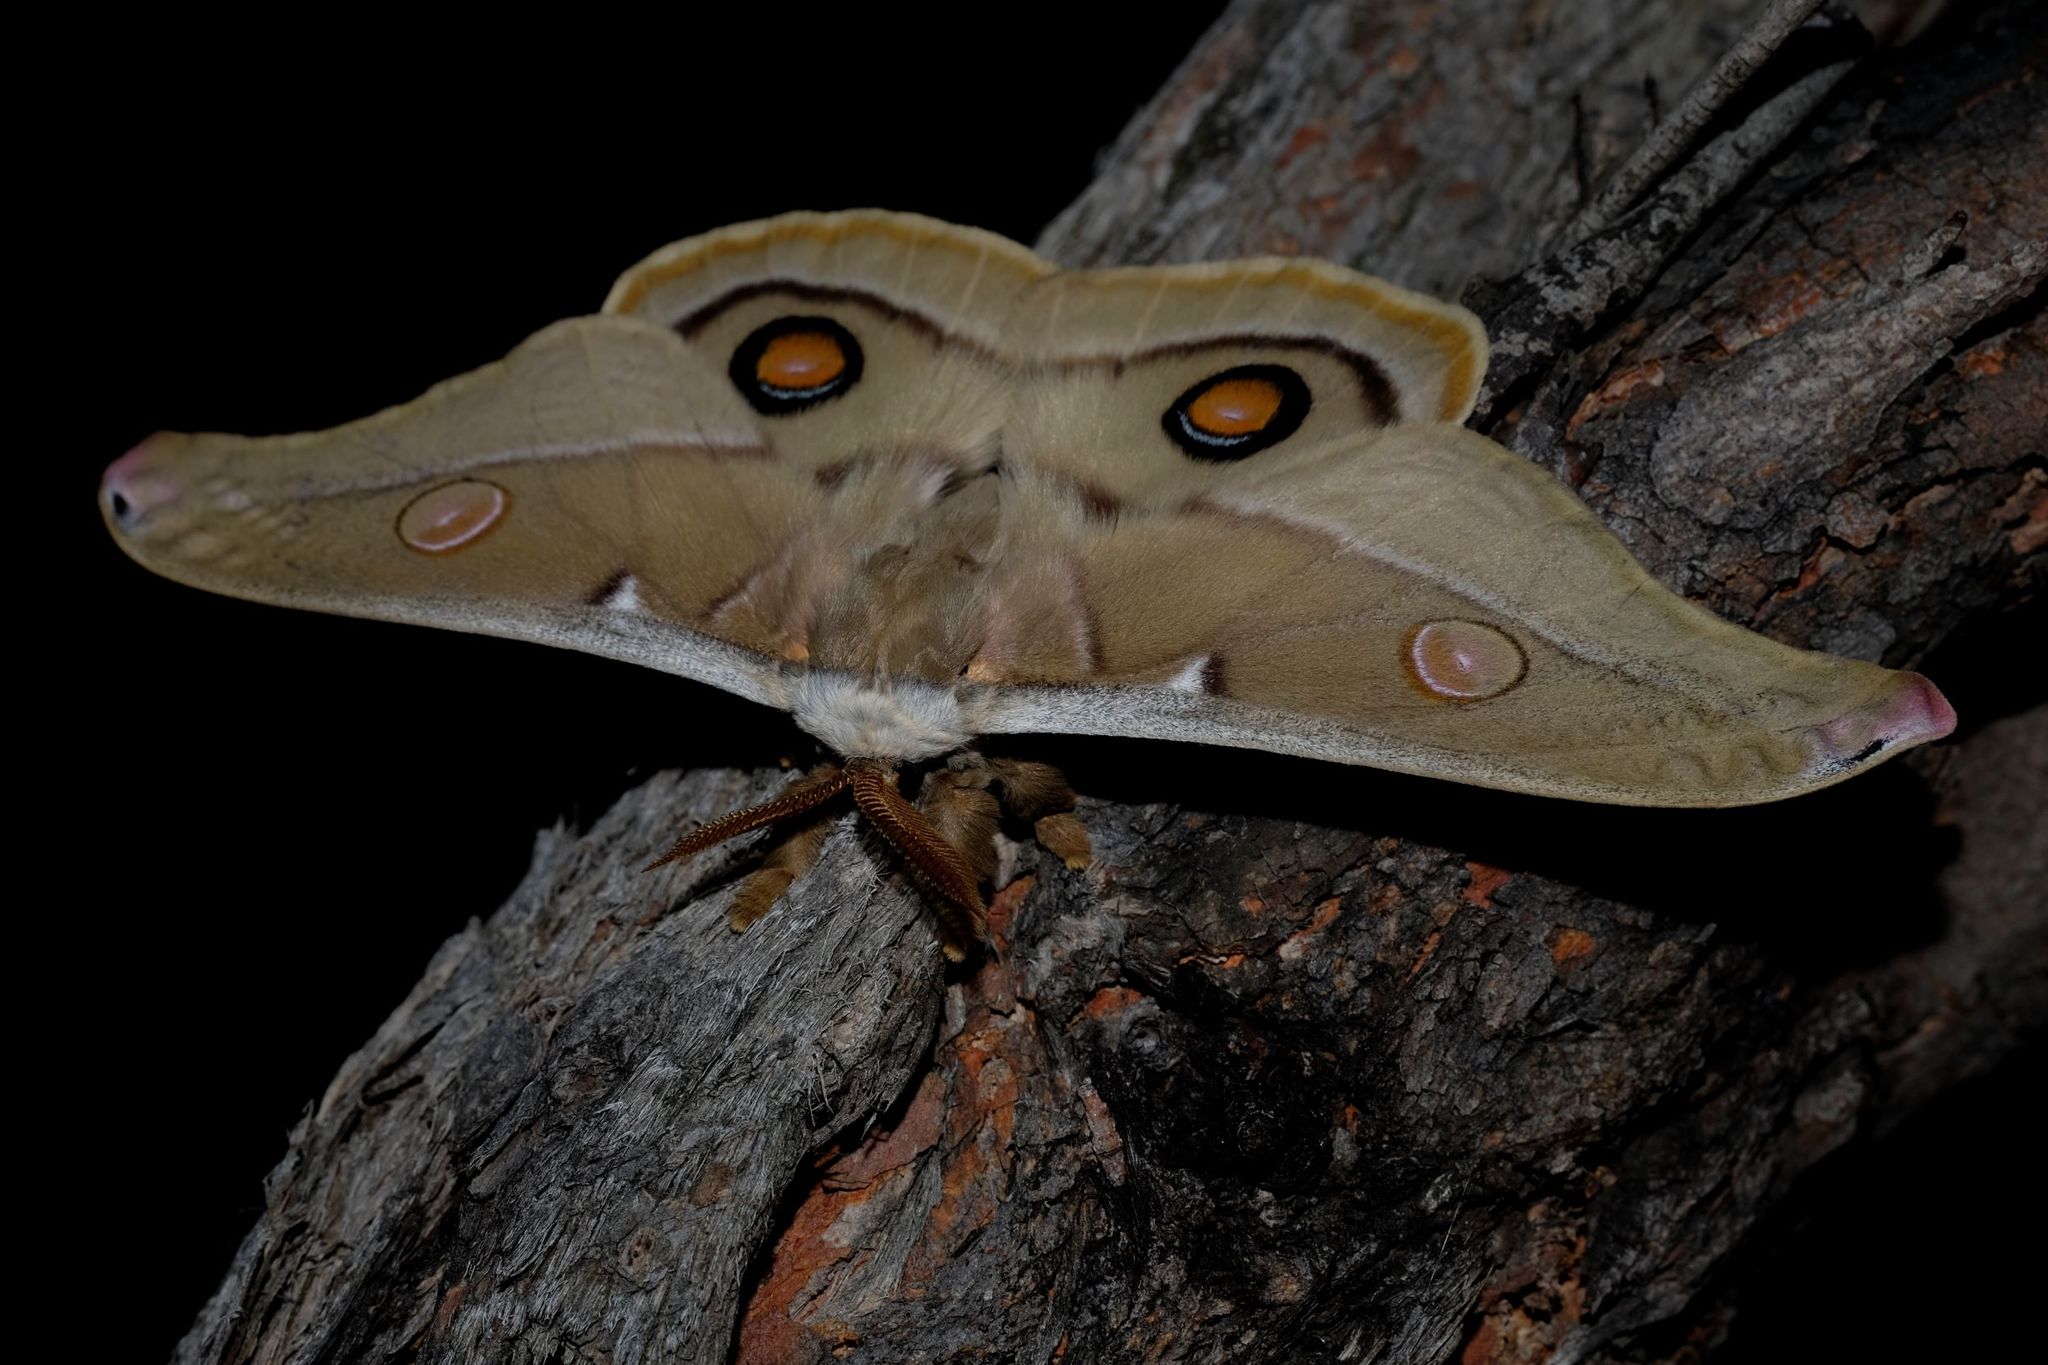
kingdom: Animalia
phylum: Arthropoda
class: Insecta
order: Lepidoptera
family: Saturniidae
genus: Opodiphthera
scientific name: Opodiphthera
